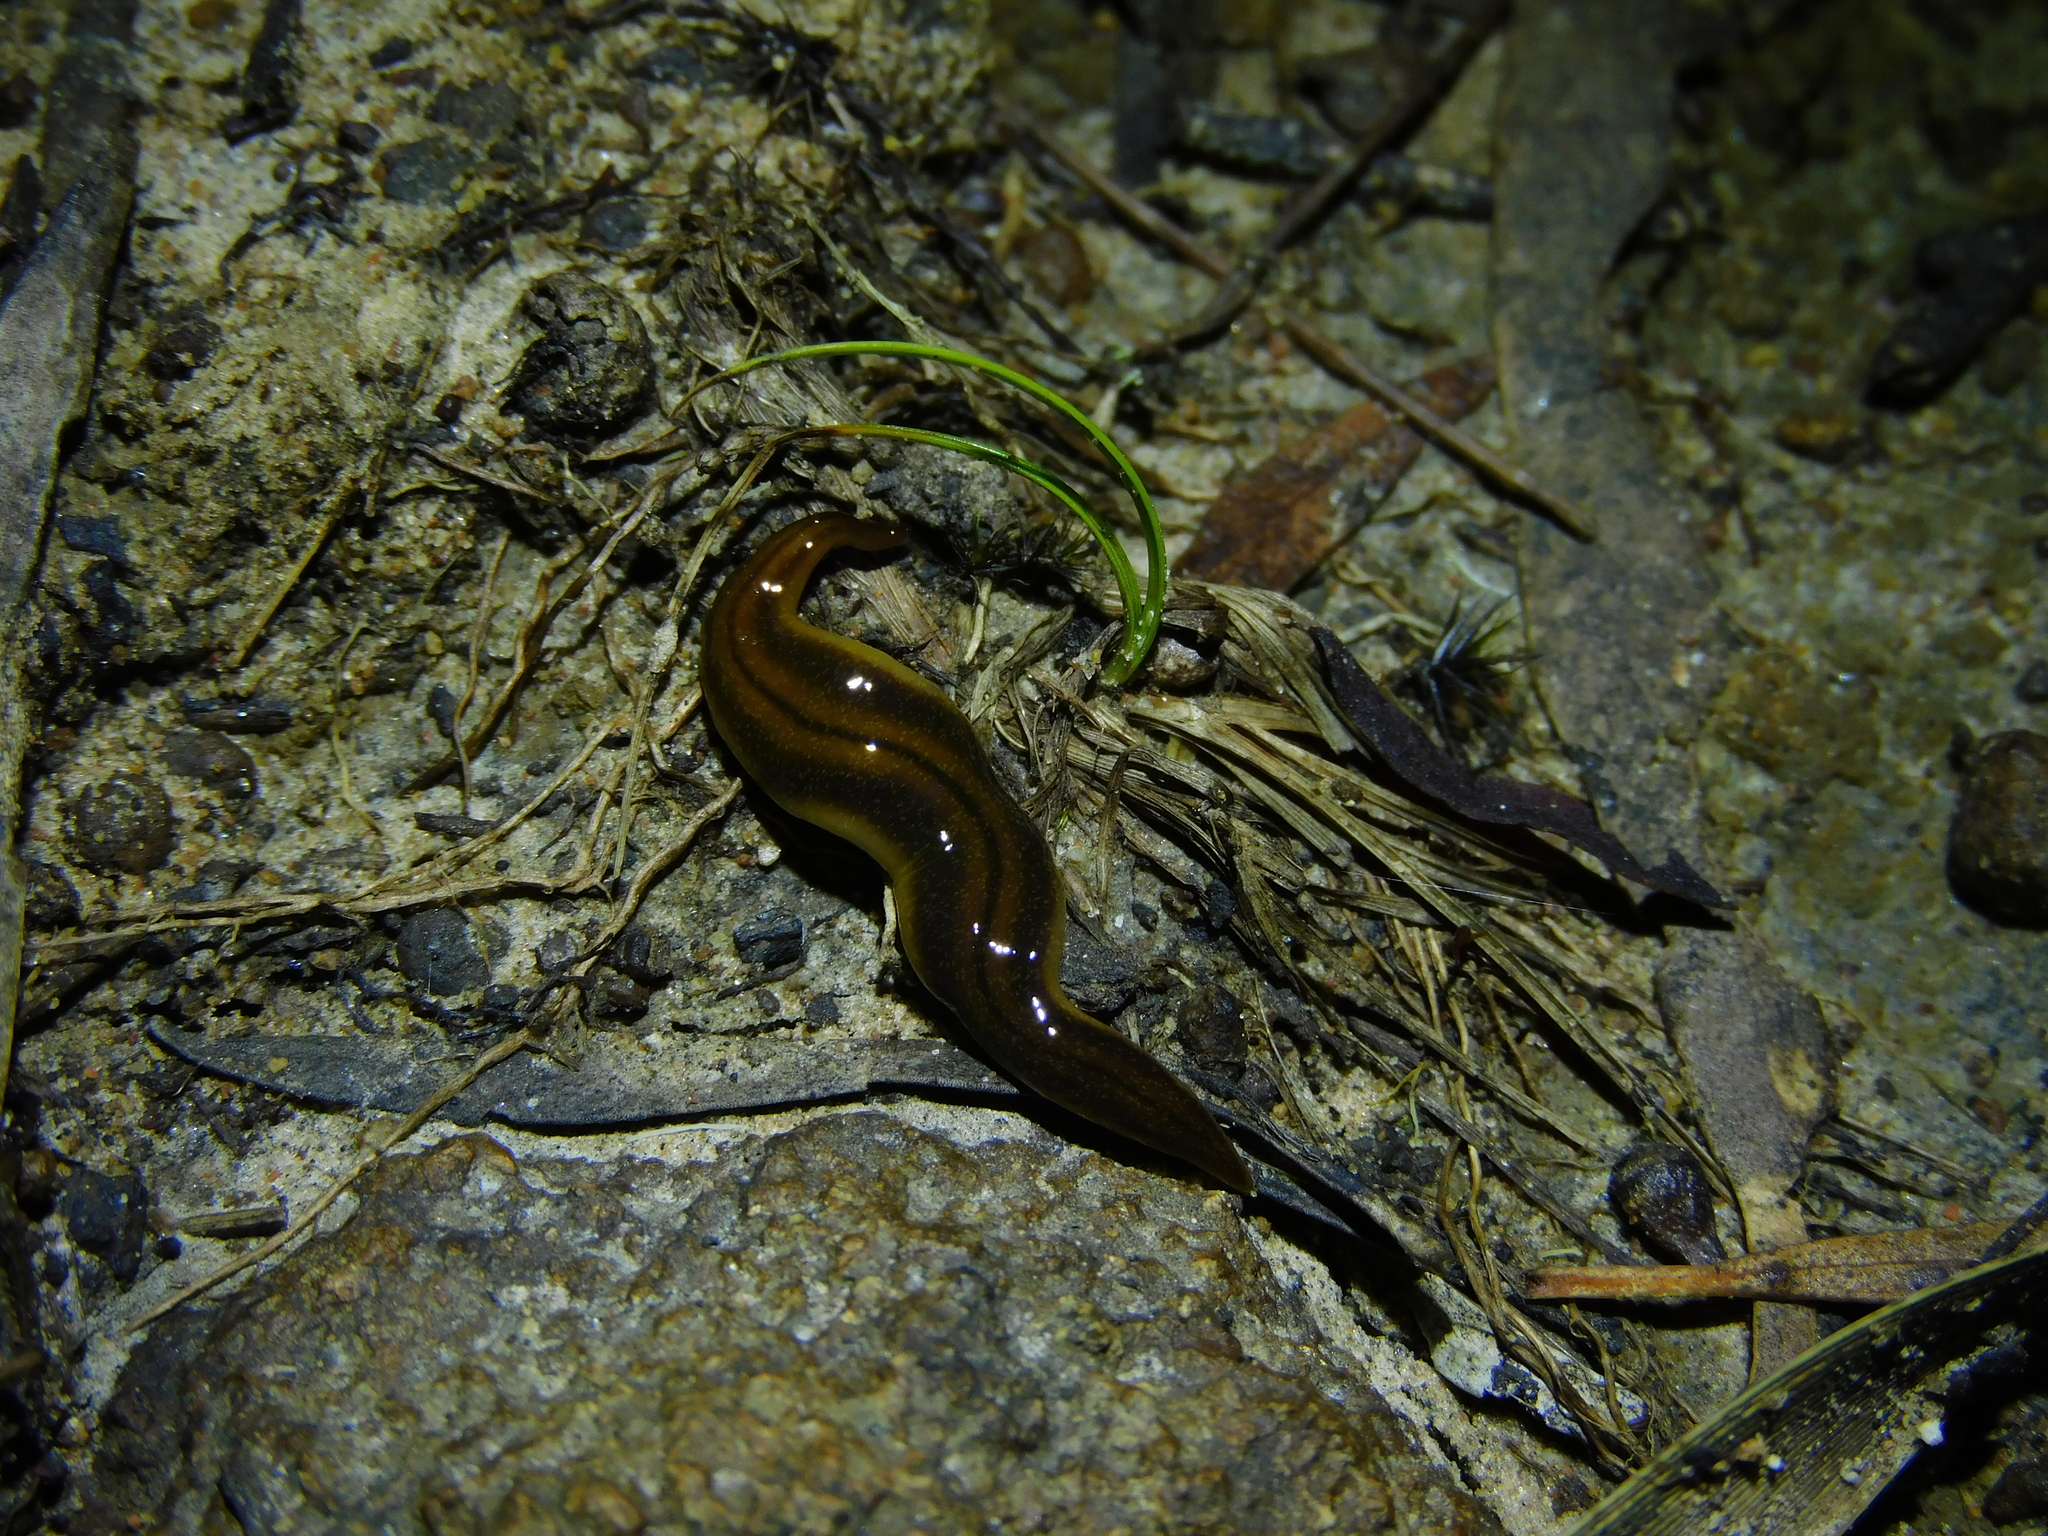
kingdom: Animalia
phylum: Platyhelminthes
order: Tricladida
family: Geoplanidae
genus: Tasmanoplana
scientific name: Tasmanoplana tasmaniana
